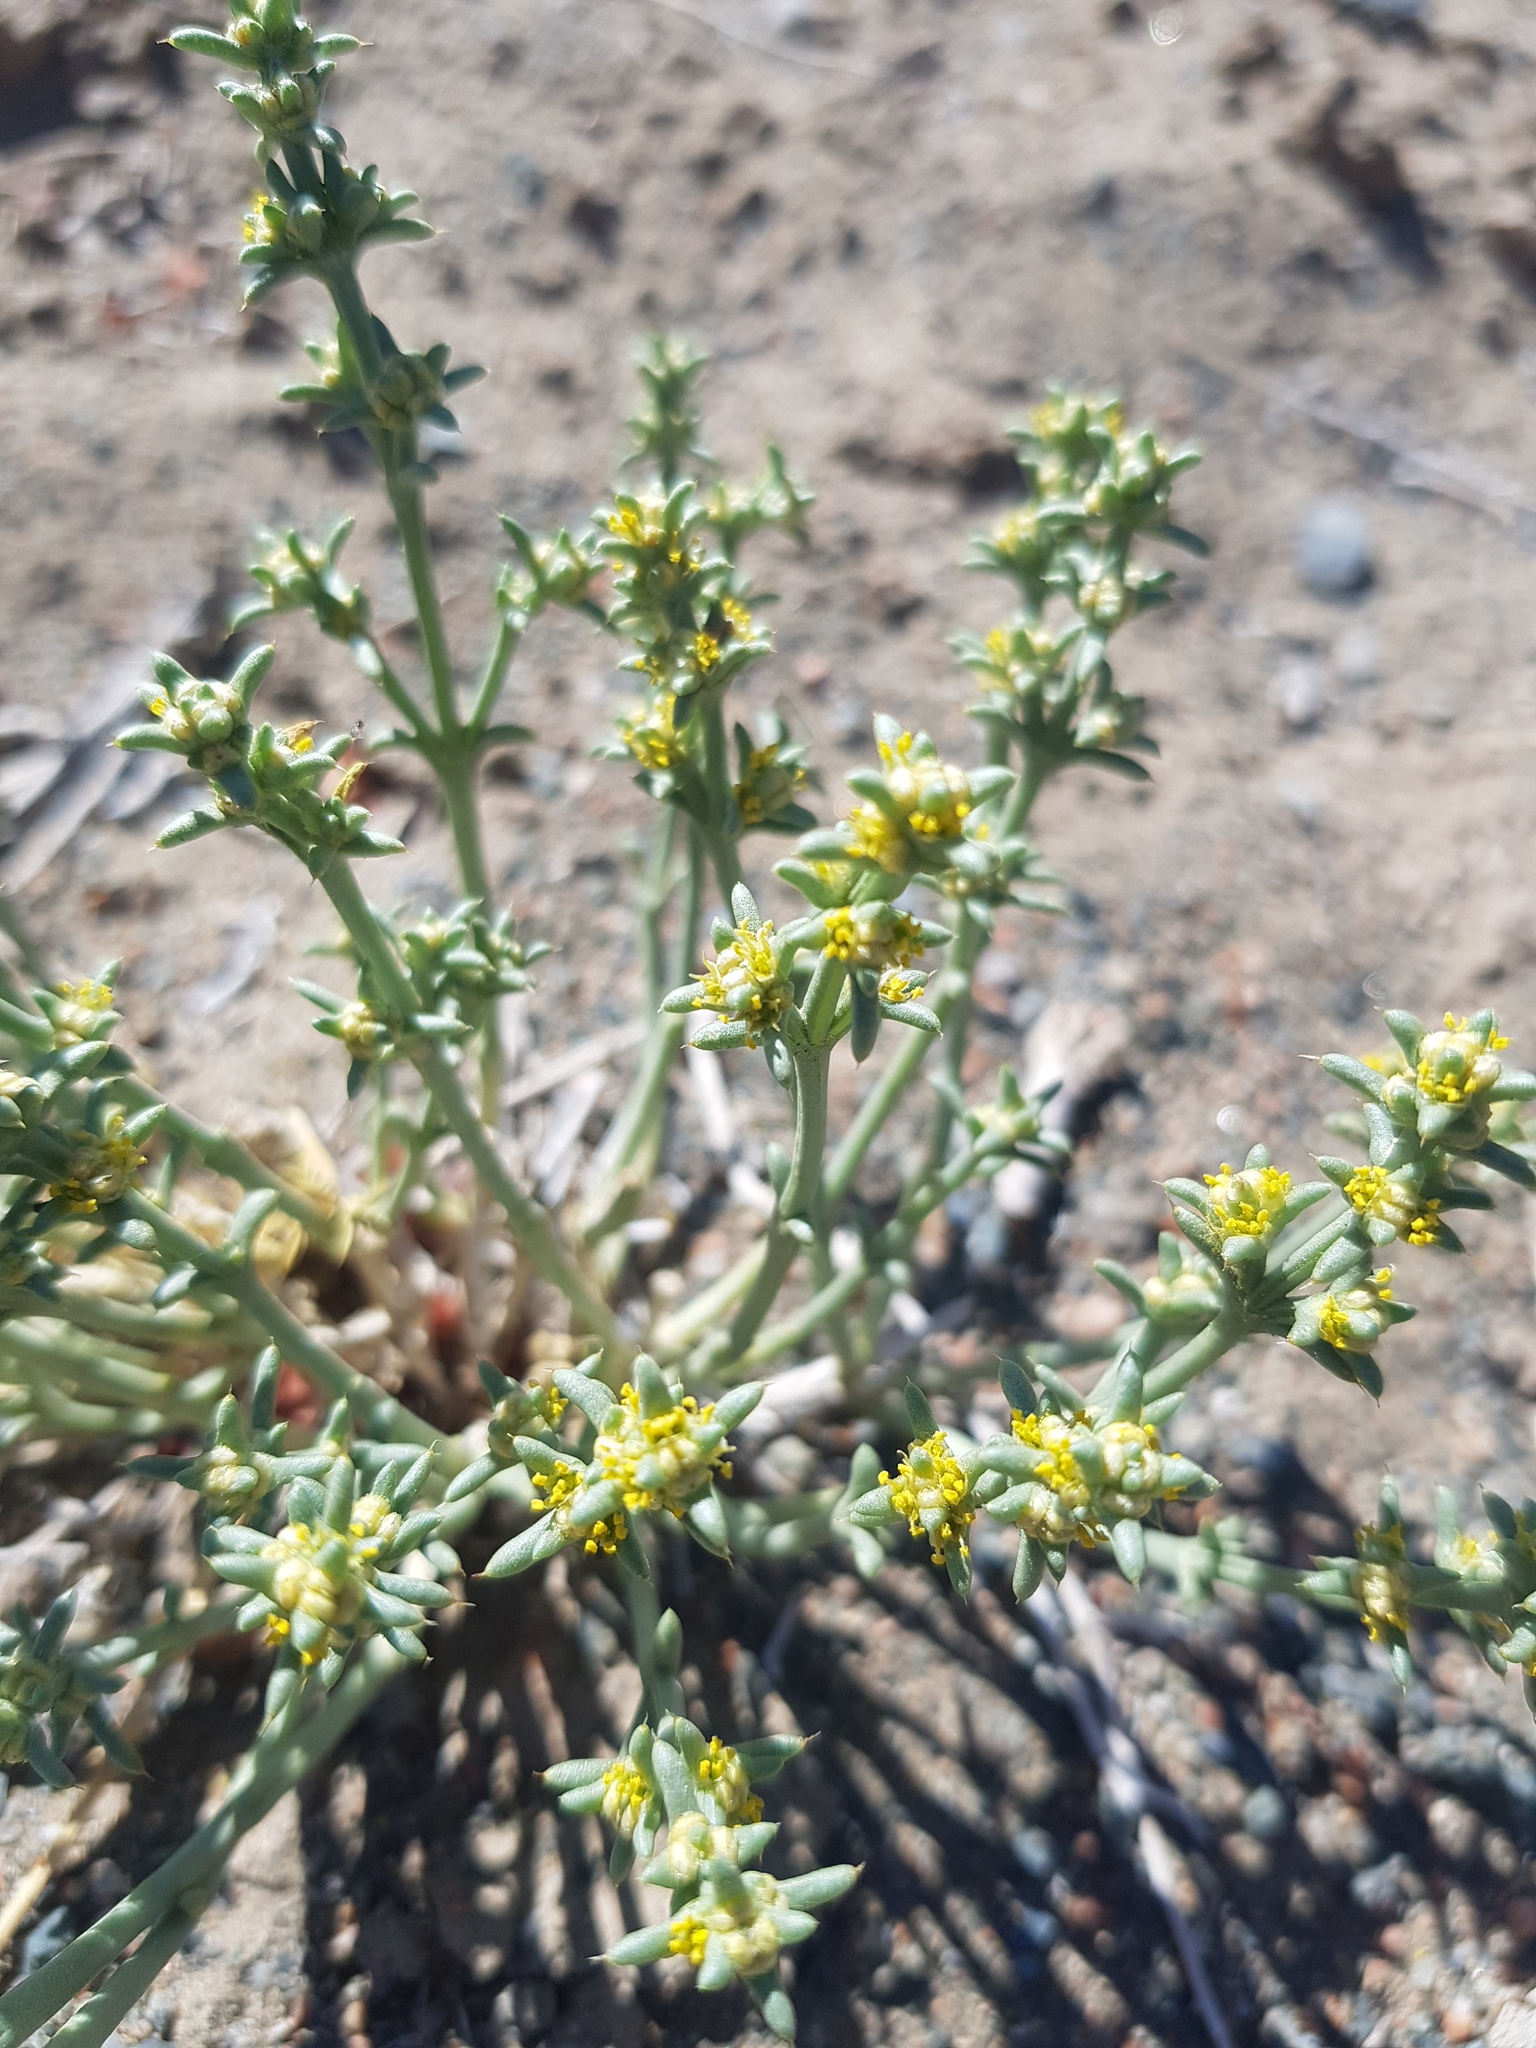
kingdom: Plantae
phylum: Tracheophyta
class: Magnoliopsida
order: Caryophyllales
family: Amaranthaceae
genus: Anabasis
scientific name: Anabasis brevifolia
